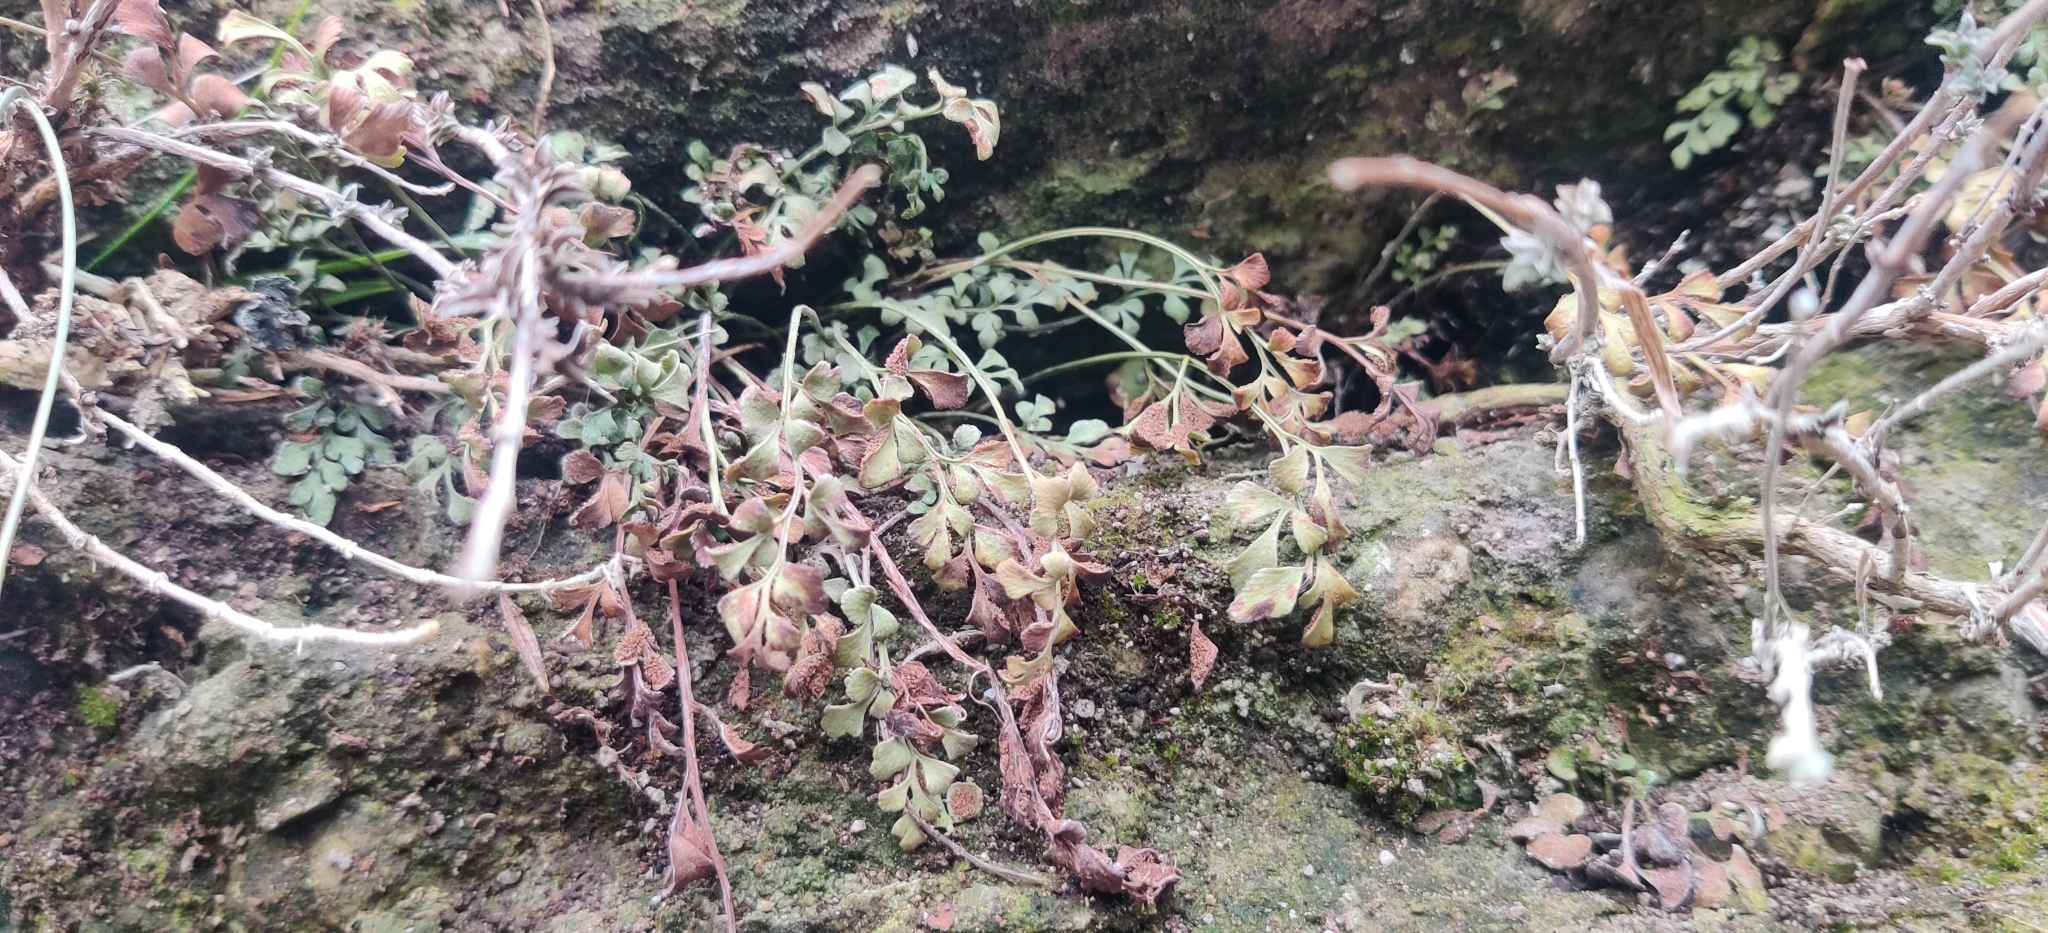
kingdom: Plantae
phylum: Tracheophyta
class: Polypodiopsida
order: Polypodiales
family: Aspleniaceae
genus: Asplenium
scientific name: Asplenium ruta-muraria
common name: Wall-rue
